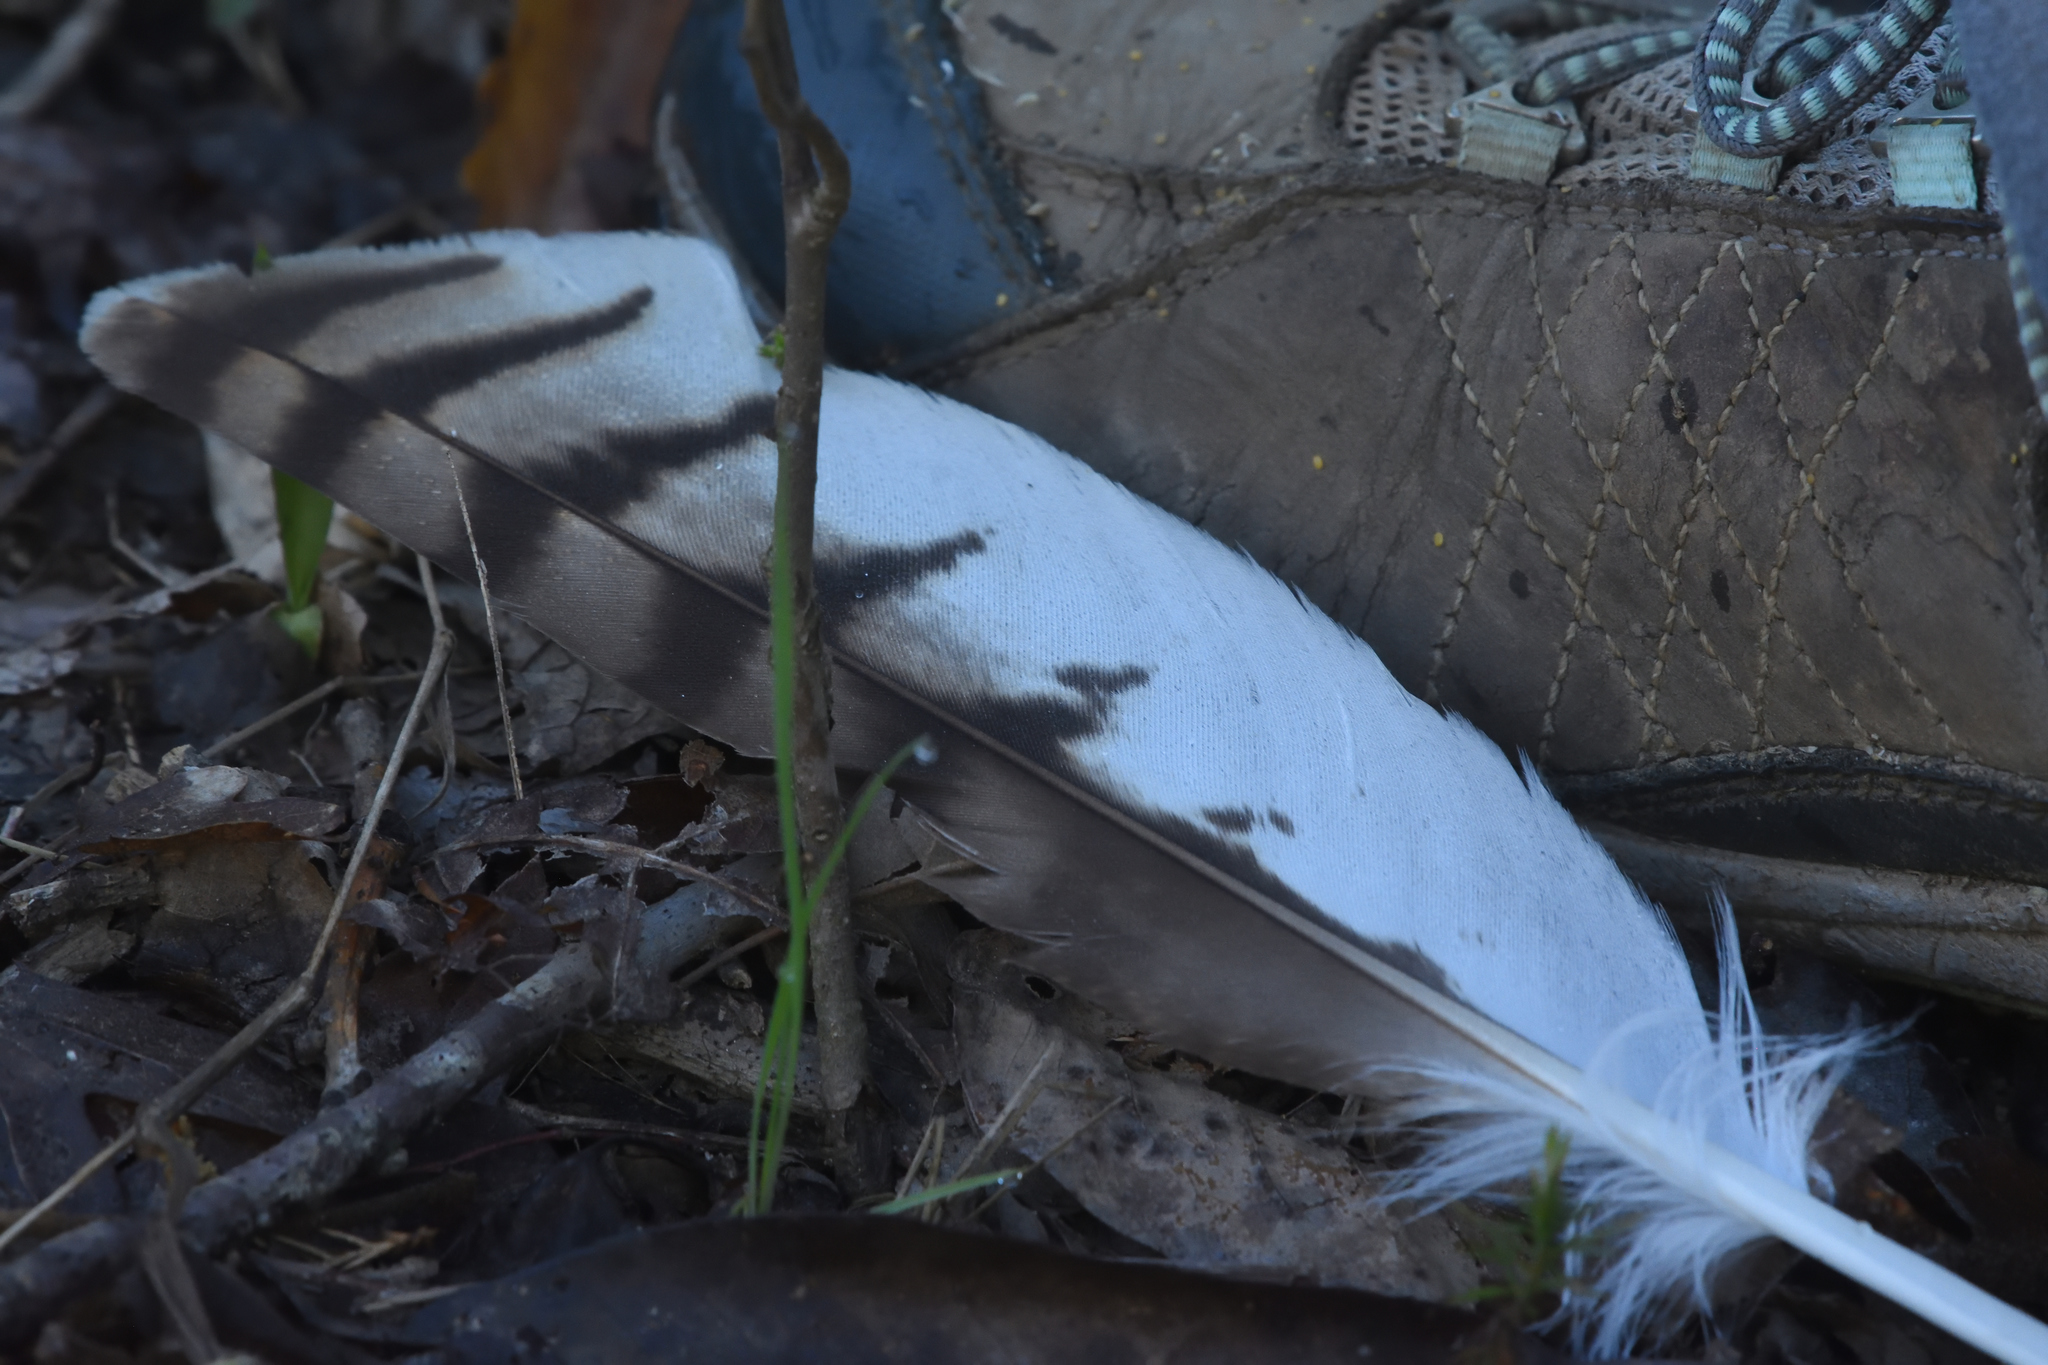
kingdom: Animalia
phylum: Chordata
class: Aves
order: Accipitriformes
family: Accipitridae
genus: Buteo
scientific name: Buteo jamaicensis
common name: Red-tailed hawk
